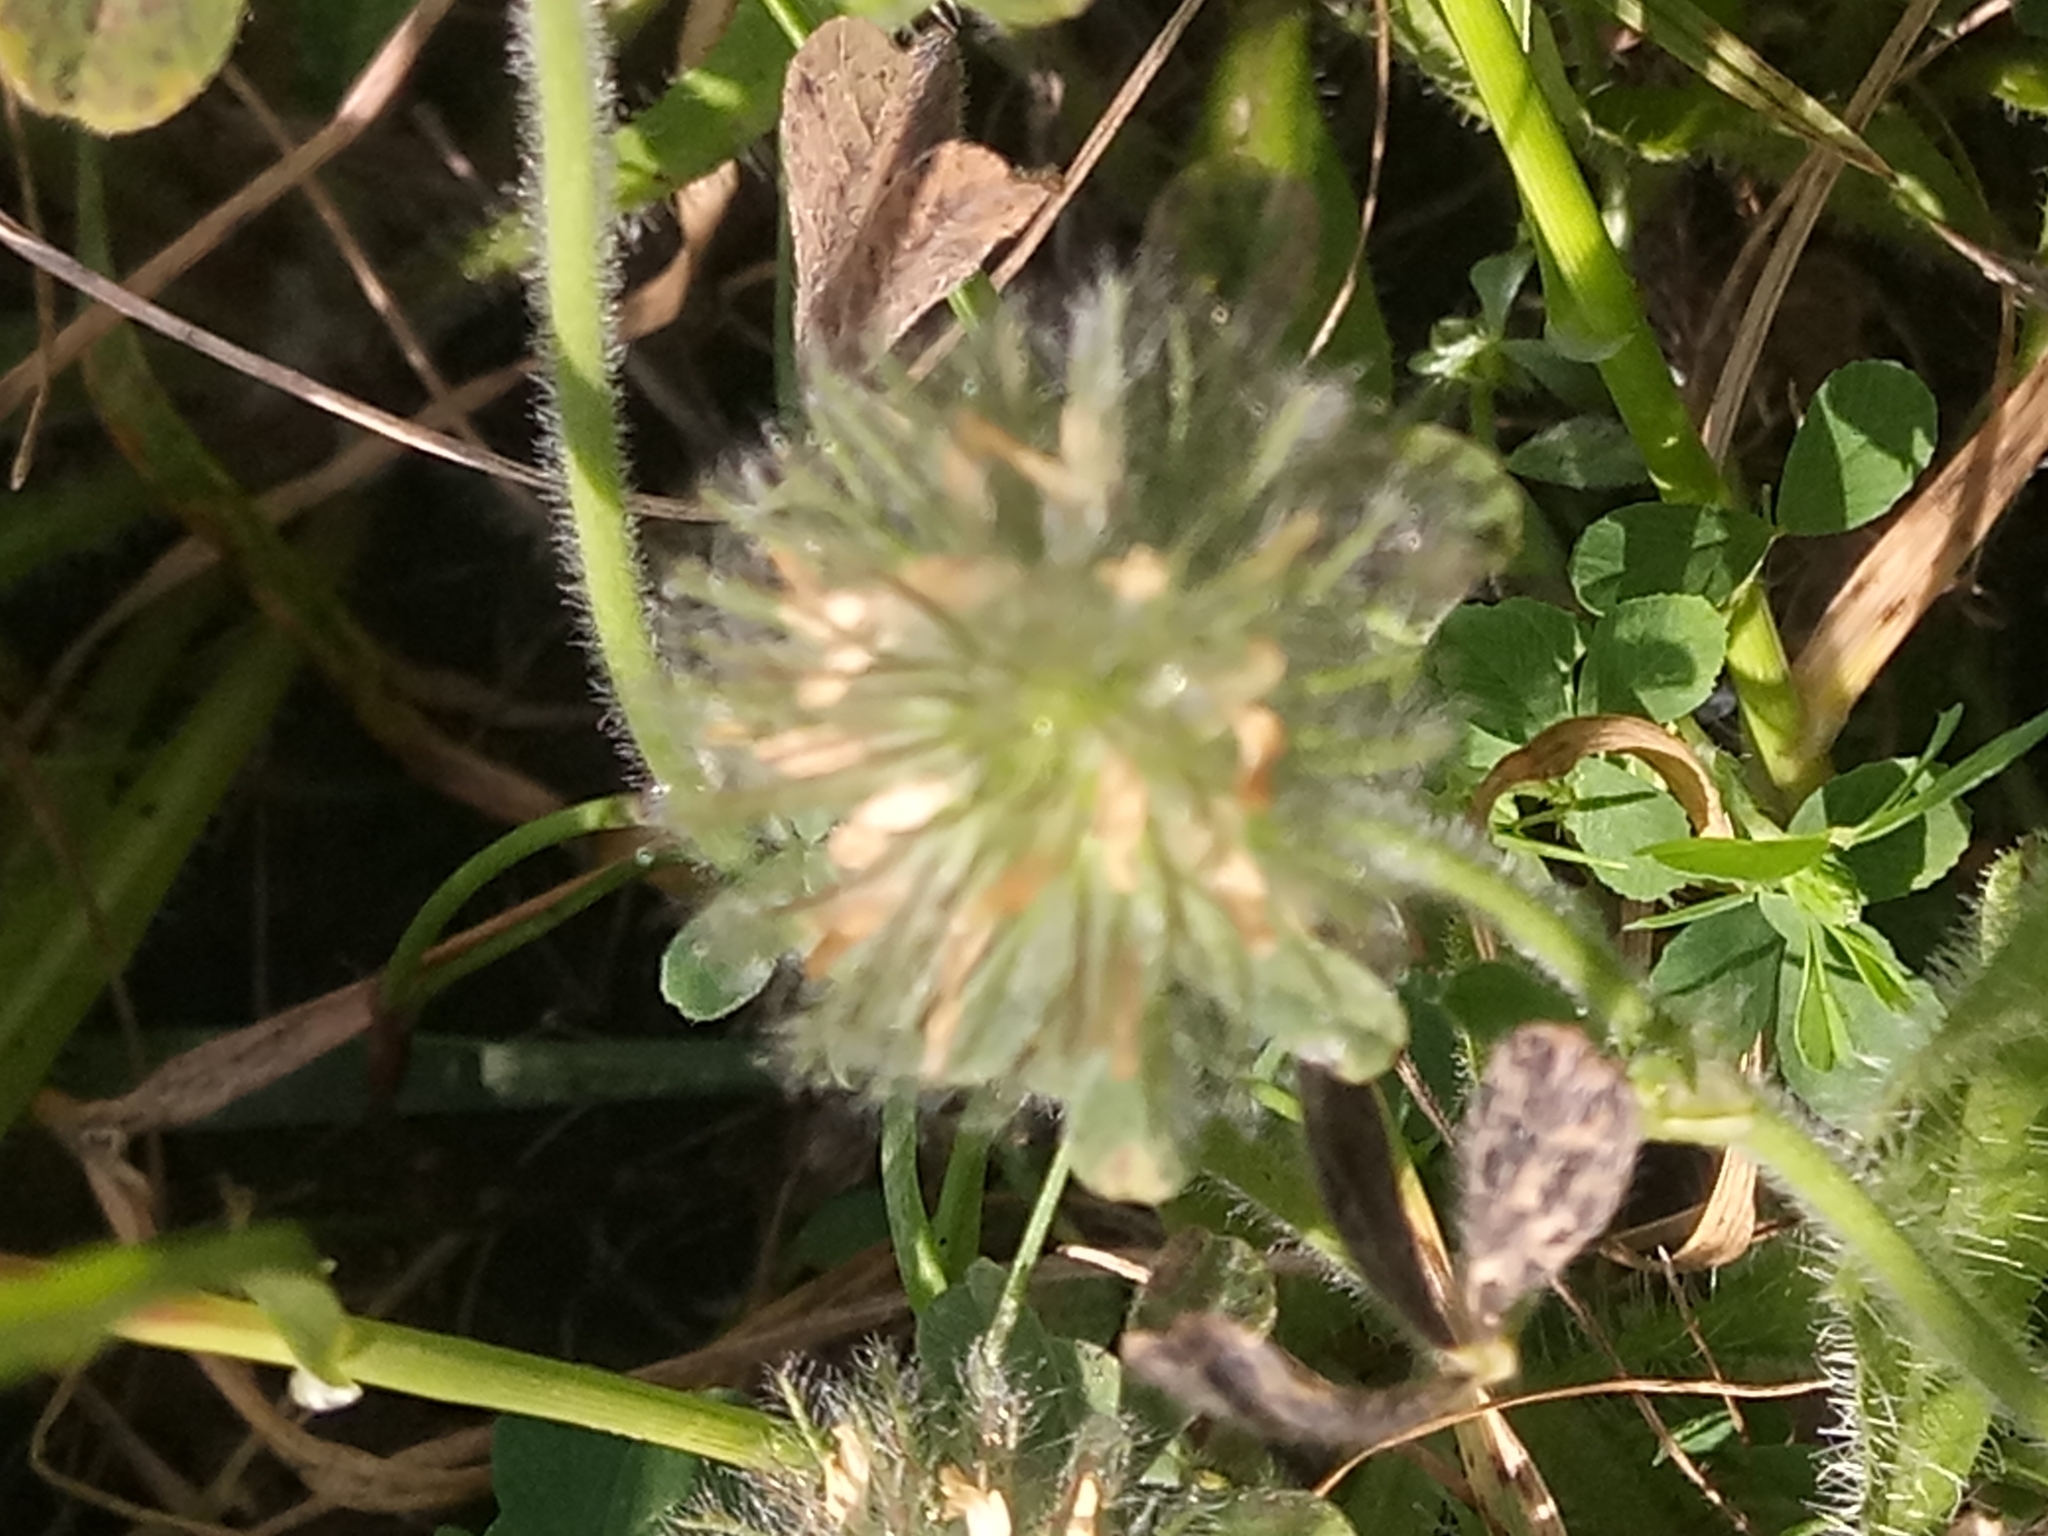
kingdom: Plantae
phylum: Tracheophyta
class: Magnoliopsida
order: Fabales
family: Fabaceae
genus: Trifolium
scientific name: Trifolium cherleri
